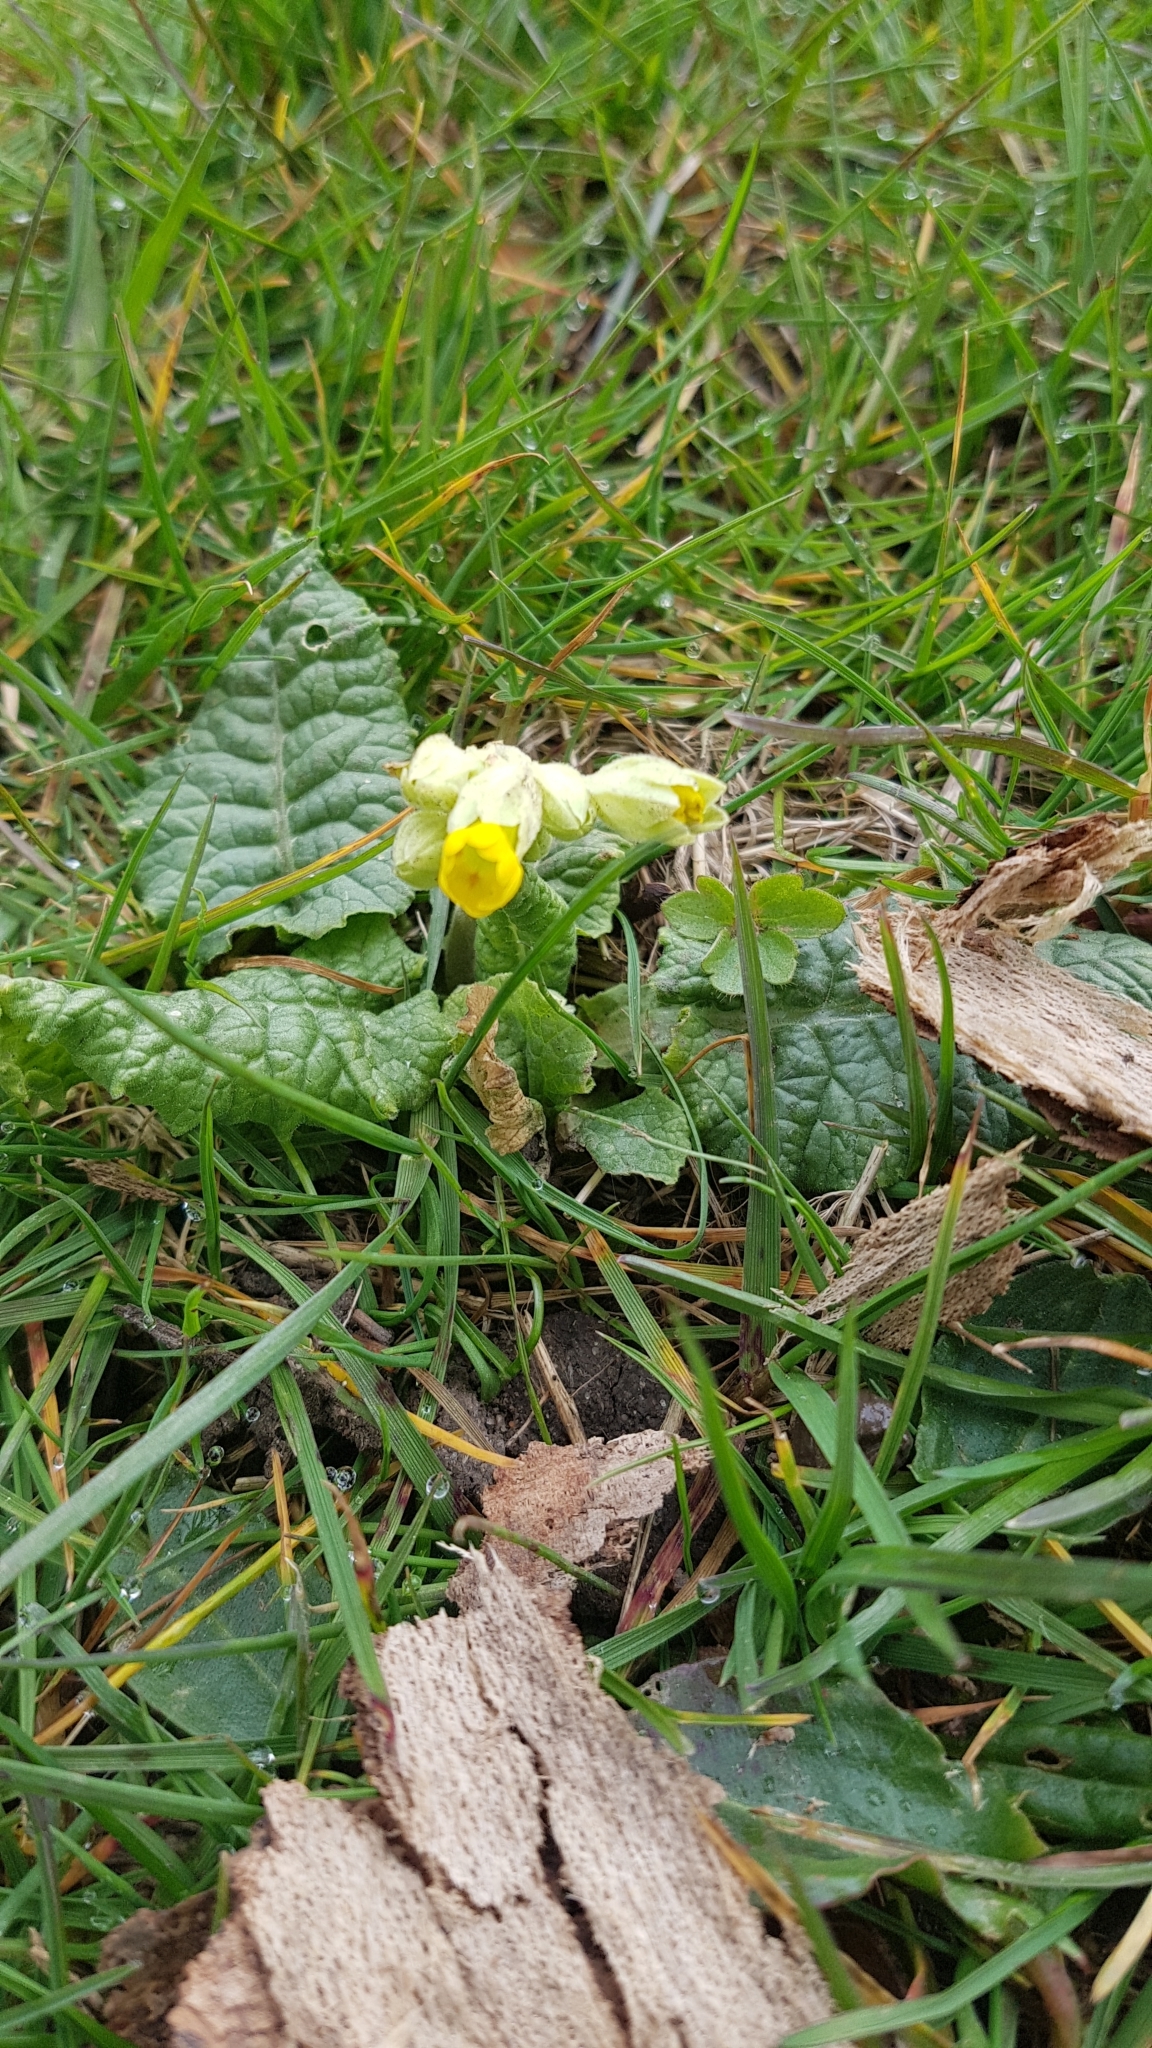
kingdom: Plantae
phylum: Tracheophyta
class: Magnoliopsida
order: Ericales
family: Primulaceae
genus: Primula
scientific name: Primula veris
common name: Cowslip
